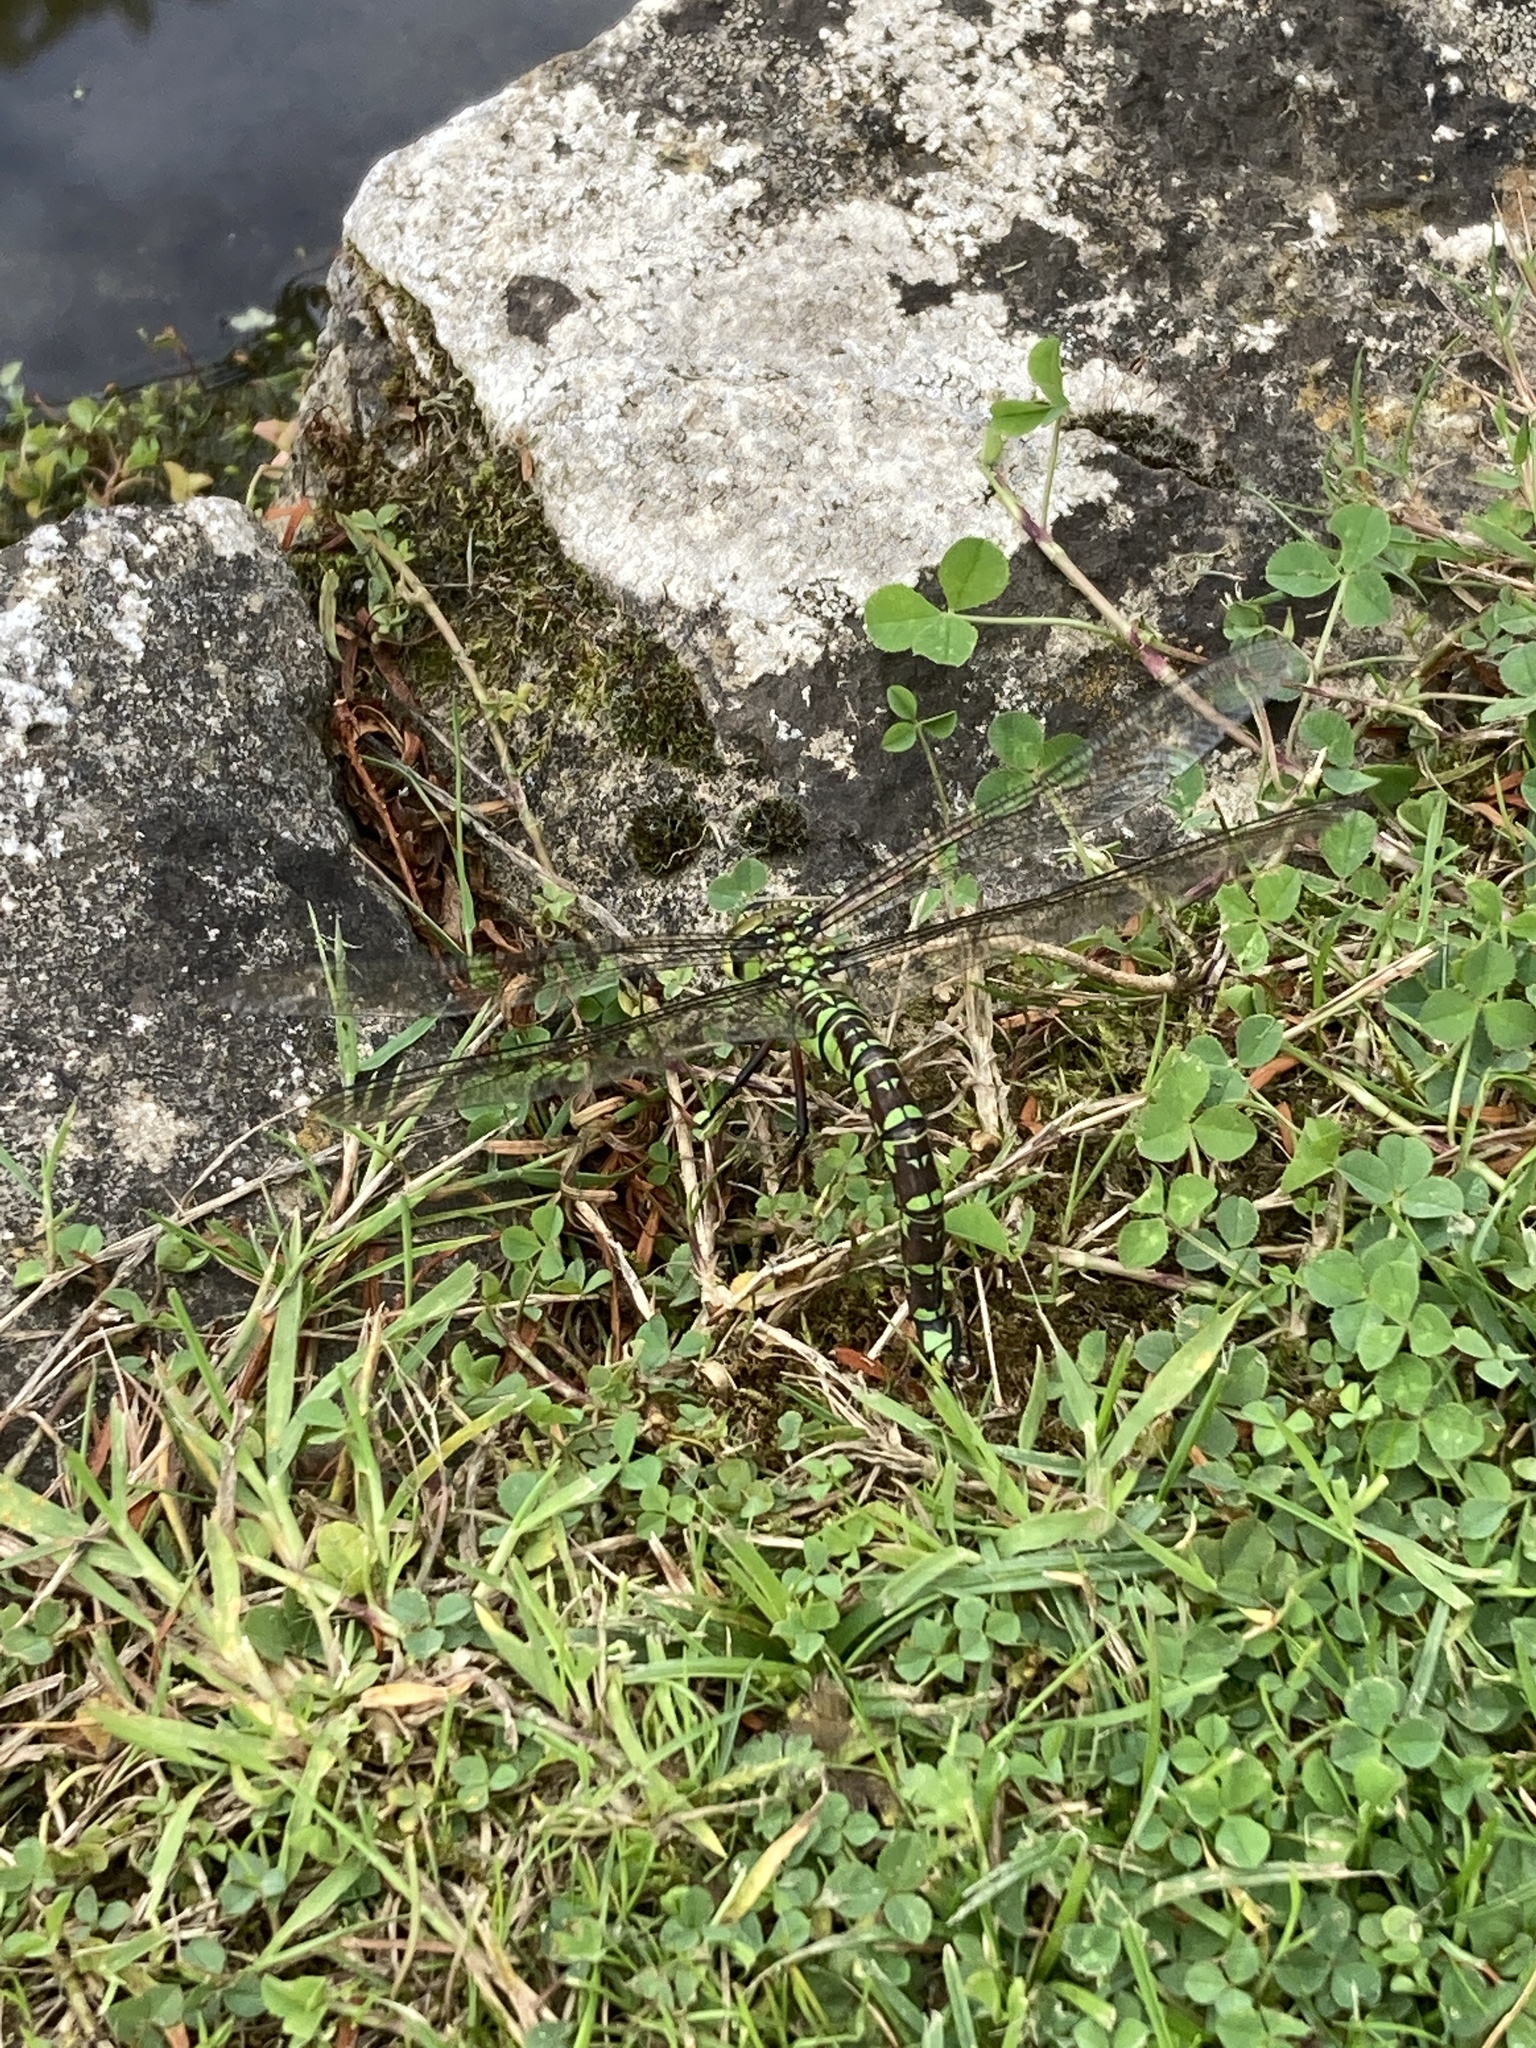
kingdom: Animalia
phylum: Arthropoda
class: Insecta
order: Odonata
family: Aeshnidae
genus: Aeshna
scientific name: Aeshna cyanea
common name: Southern hawker
